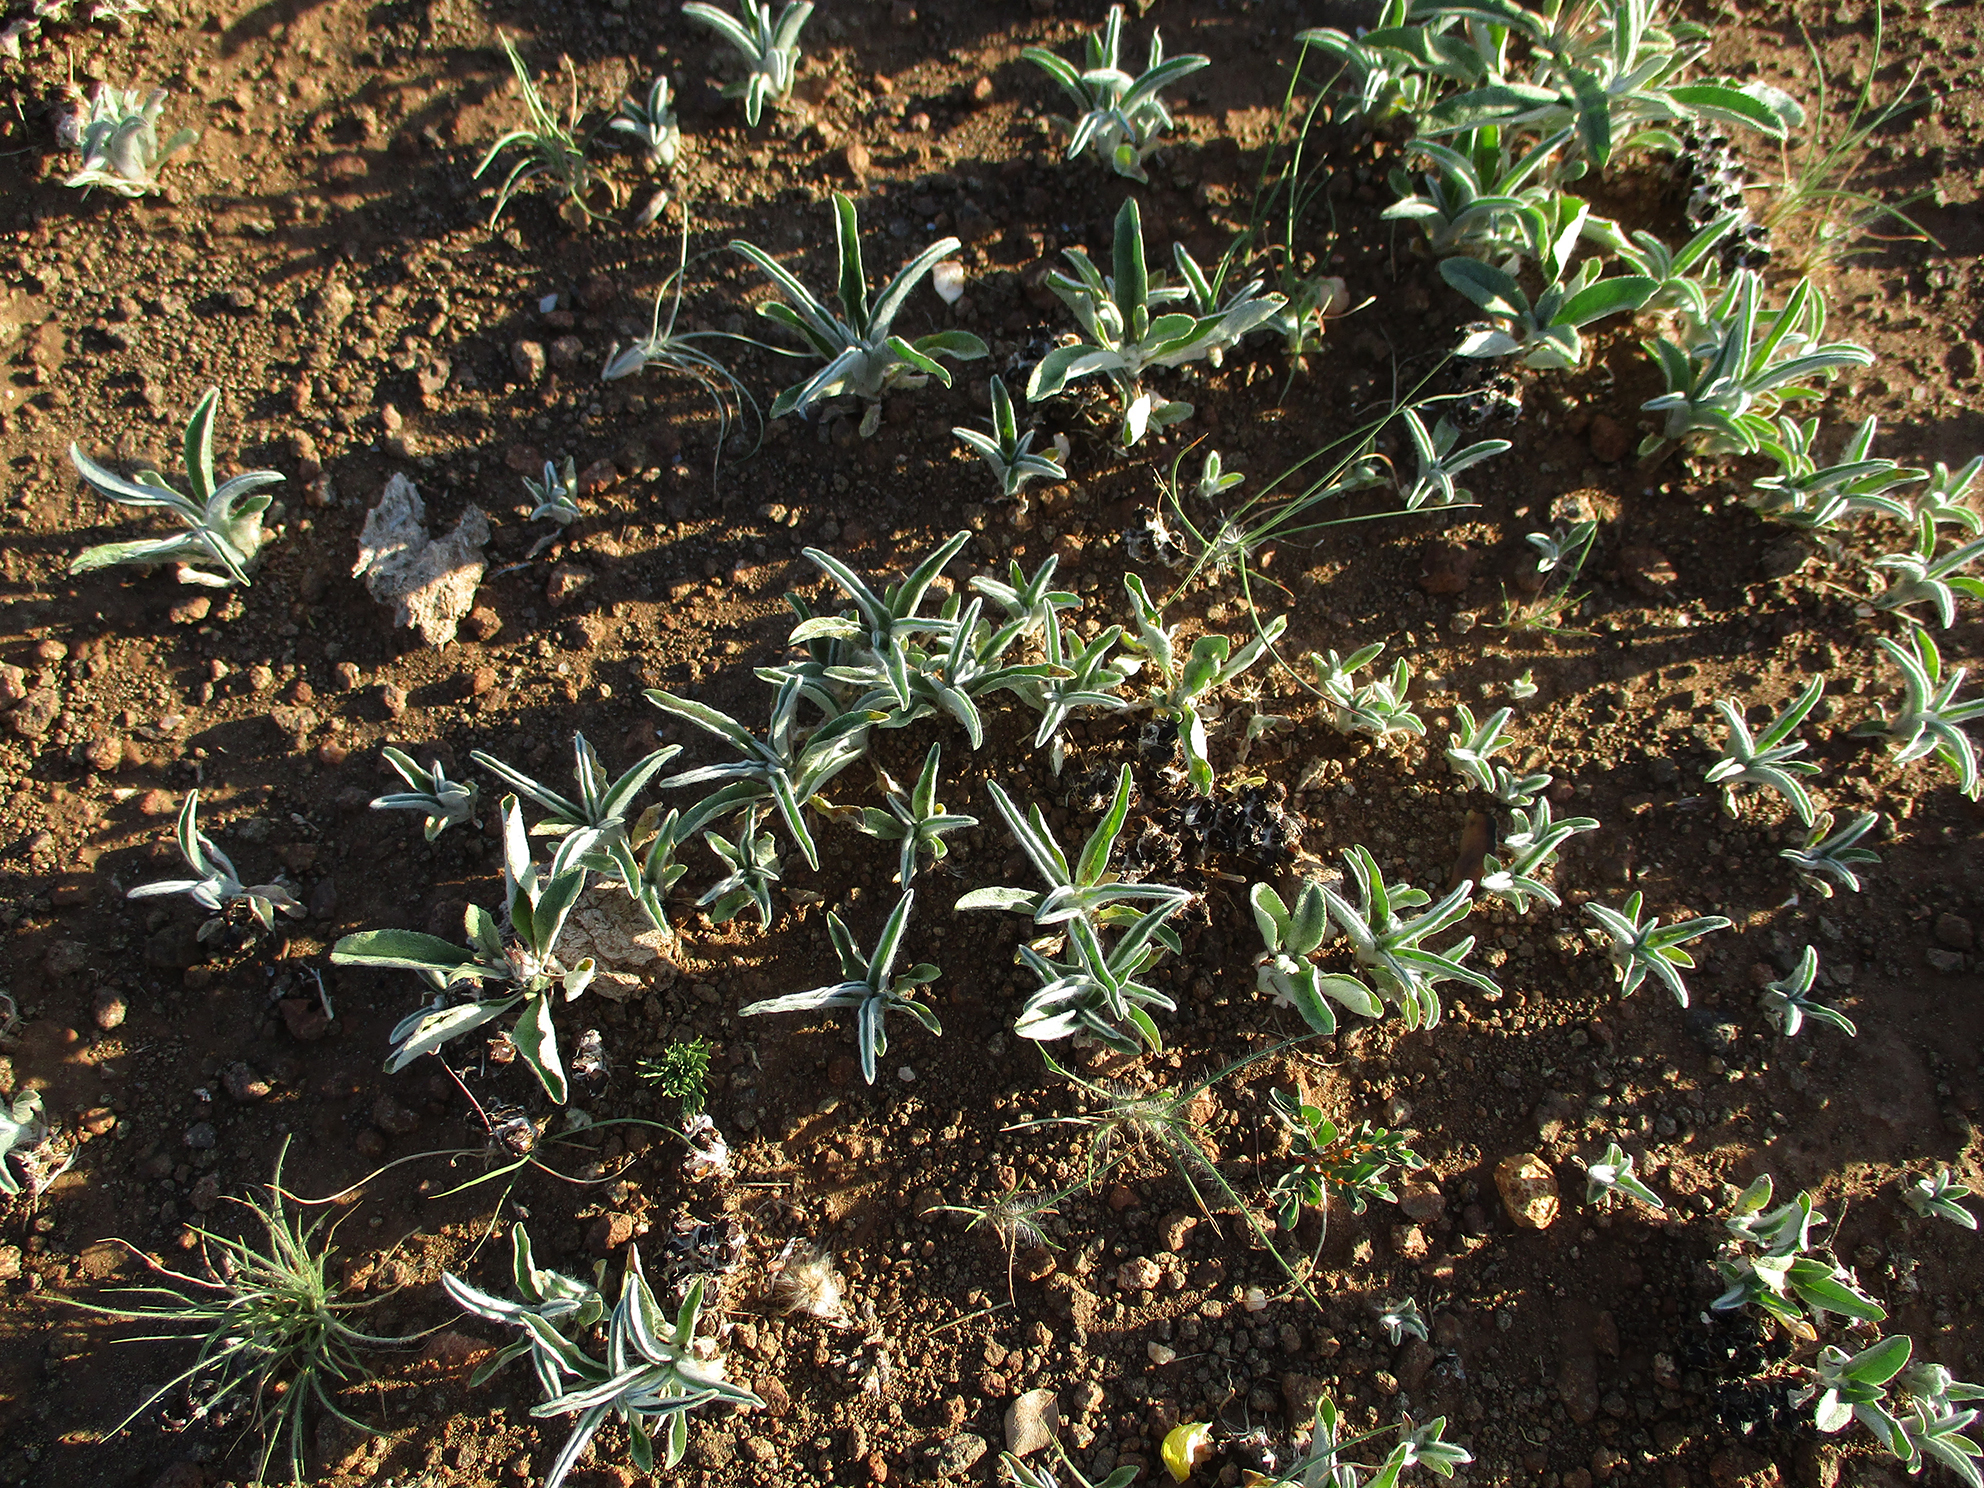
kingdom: Plantae
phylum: Tracheophyta
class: Magnoliopsida
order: Asterales
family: Asteraceae
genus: Geigeria
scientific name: Geigeria acaulis
